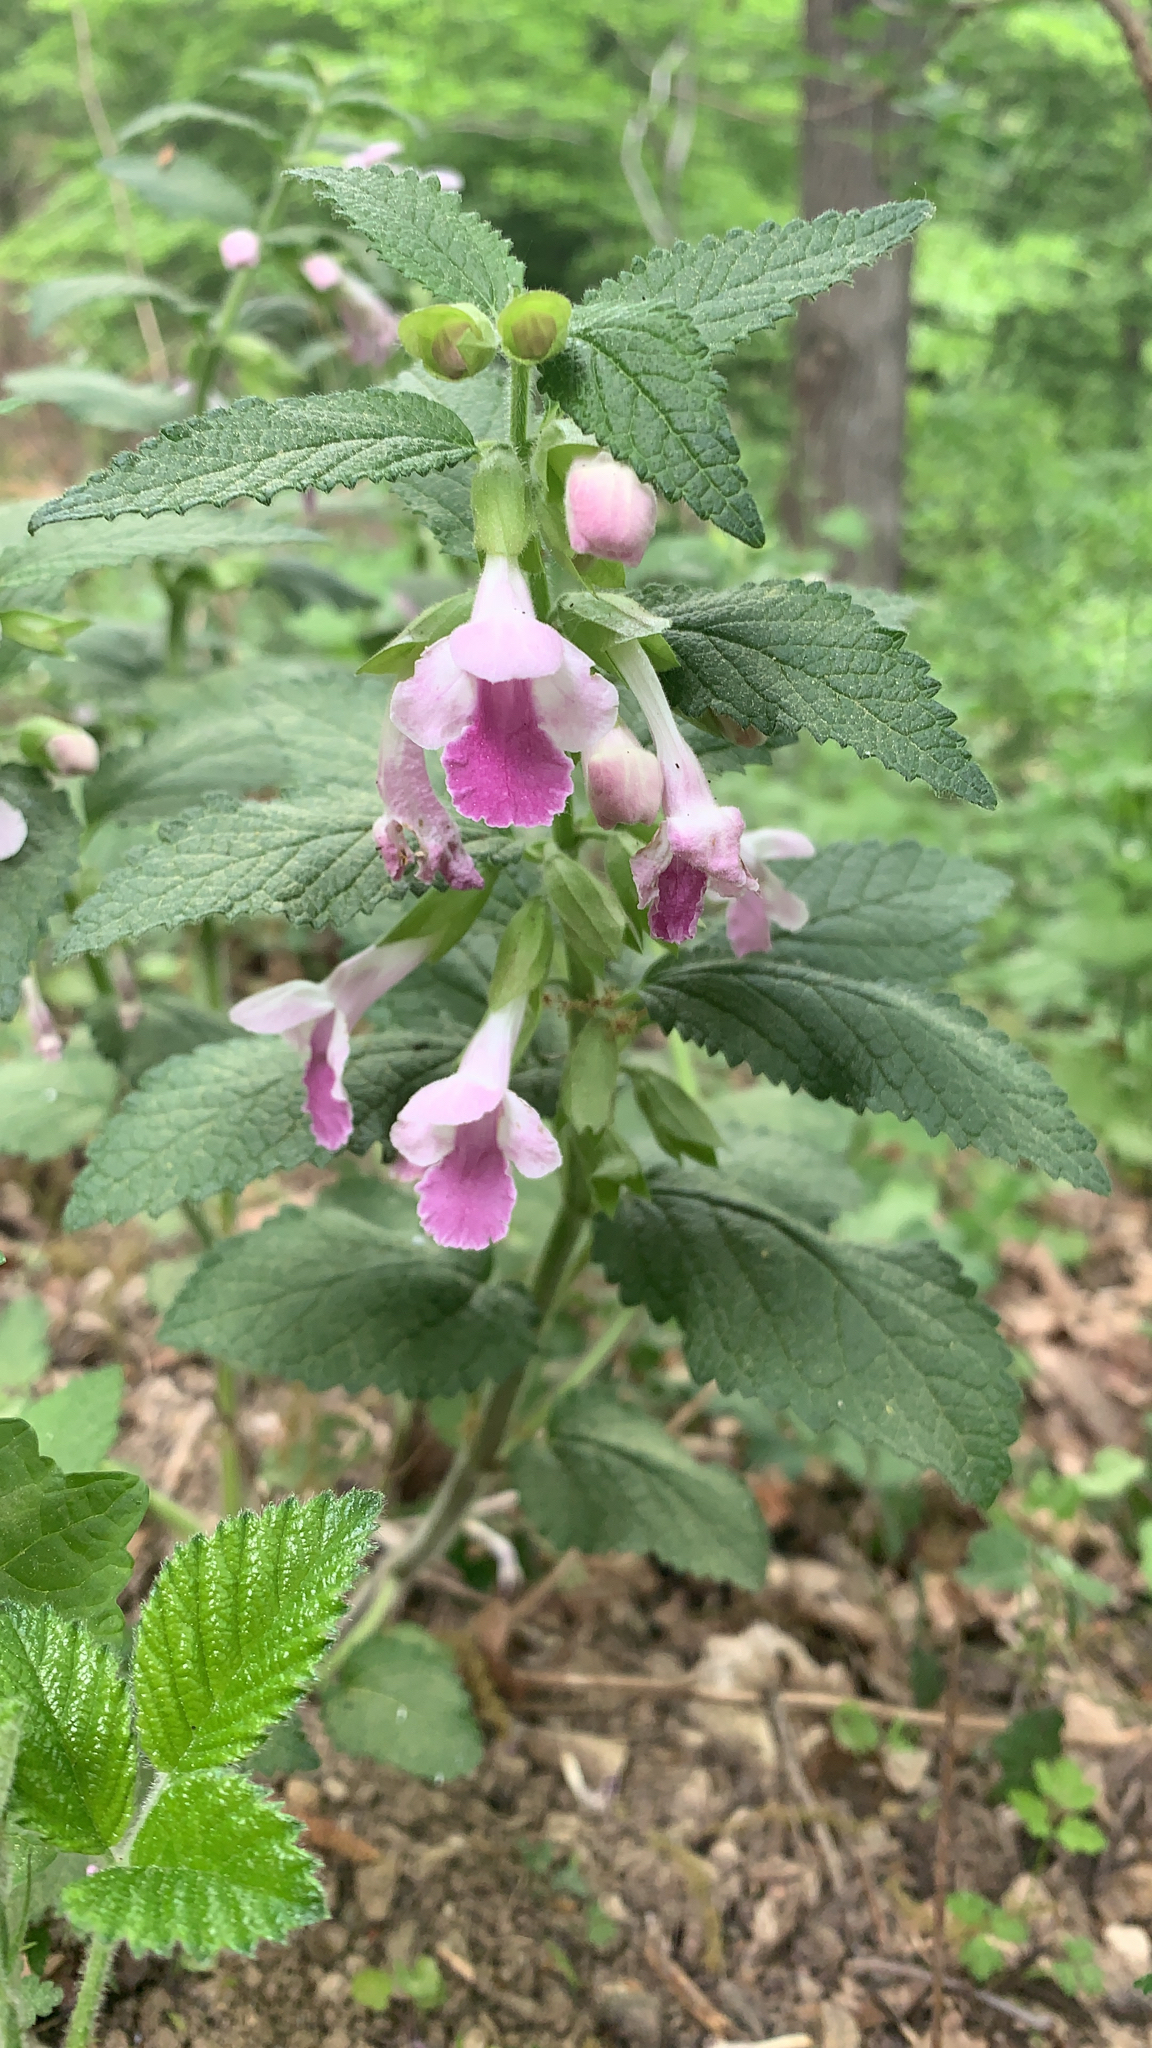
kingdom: Plantae
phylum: Tracheophyta
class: Magnoliopsida
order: Lamiales
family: Lamiaceae
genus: Melittis
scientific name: Melittis melissophyllum
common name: Bastard balm
